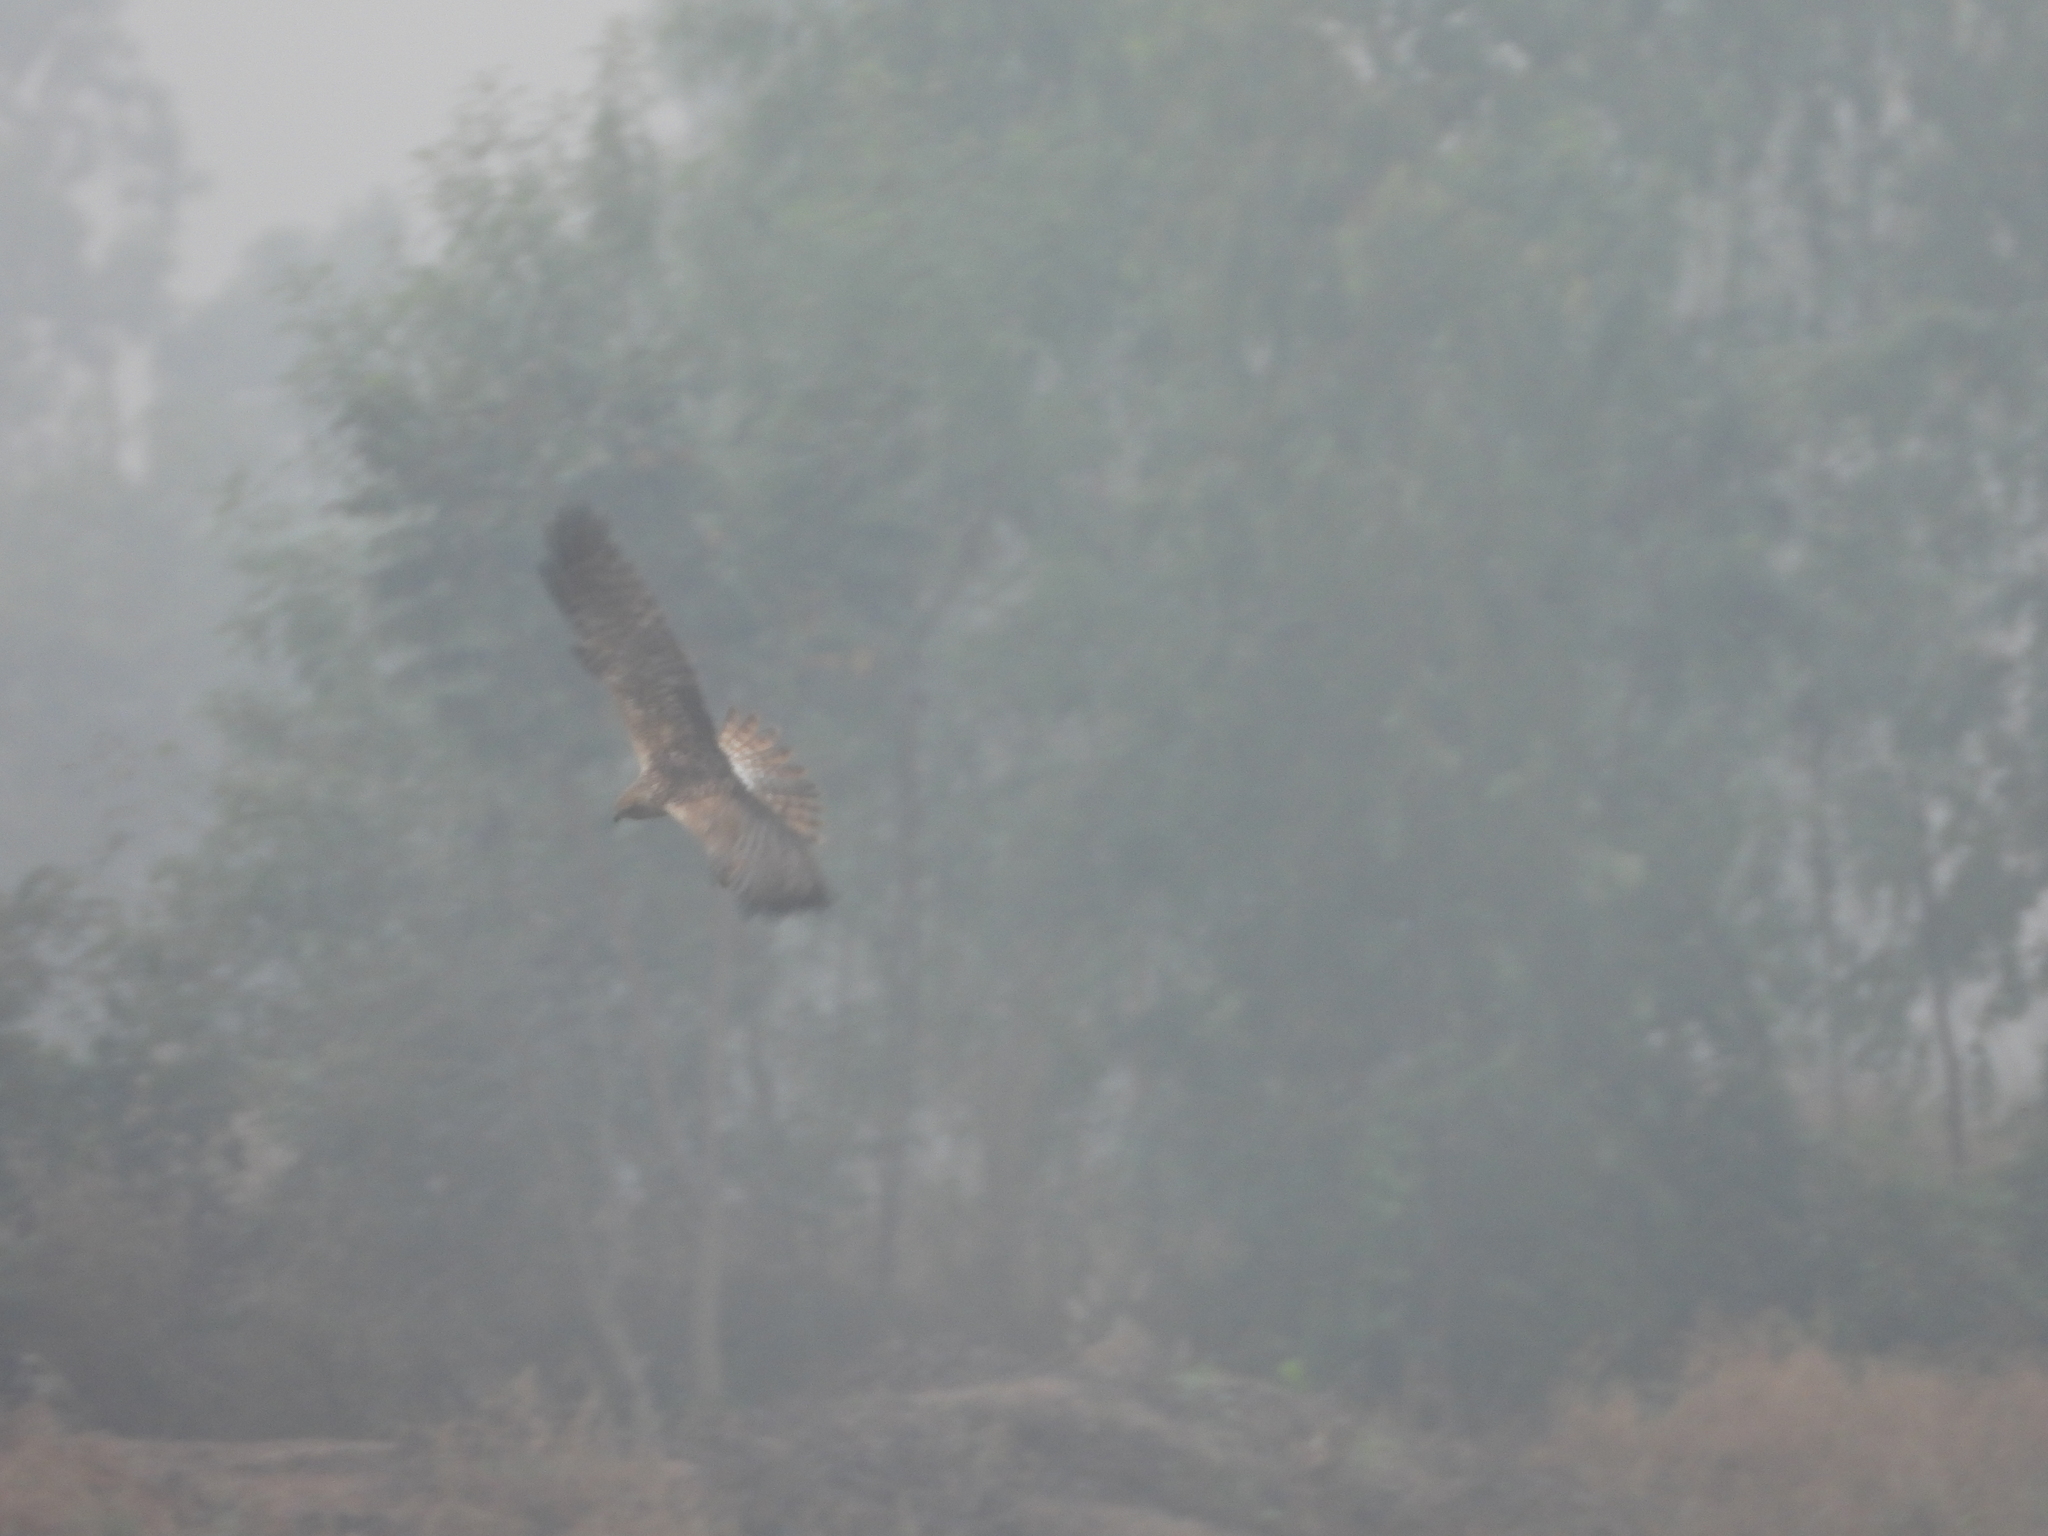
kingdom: Animalia
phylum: Chordata
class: Aves
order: Accipitriformes
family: Accipitridae
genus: Circus
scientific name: Circus spilonotus
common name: Eastern marsh-harrier
